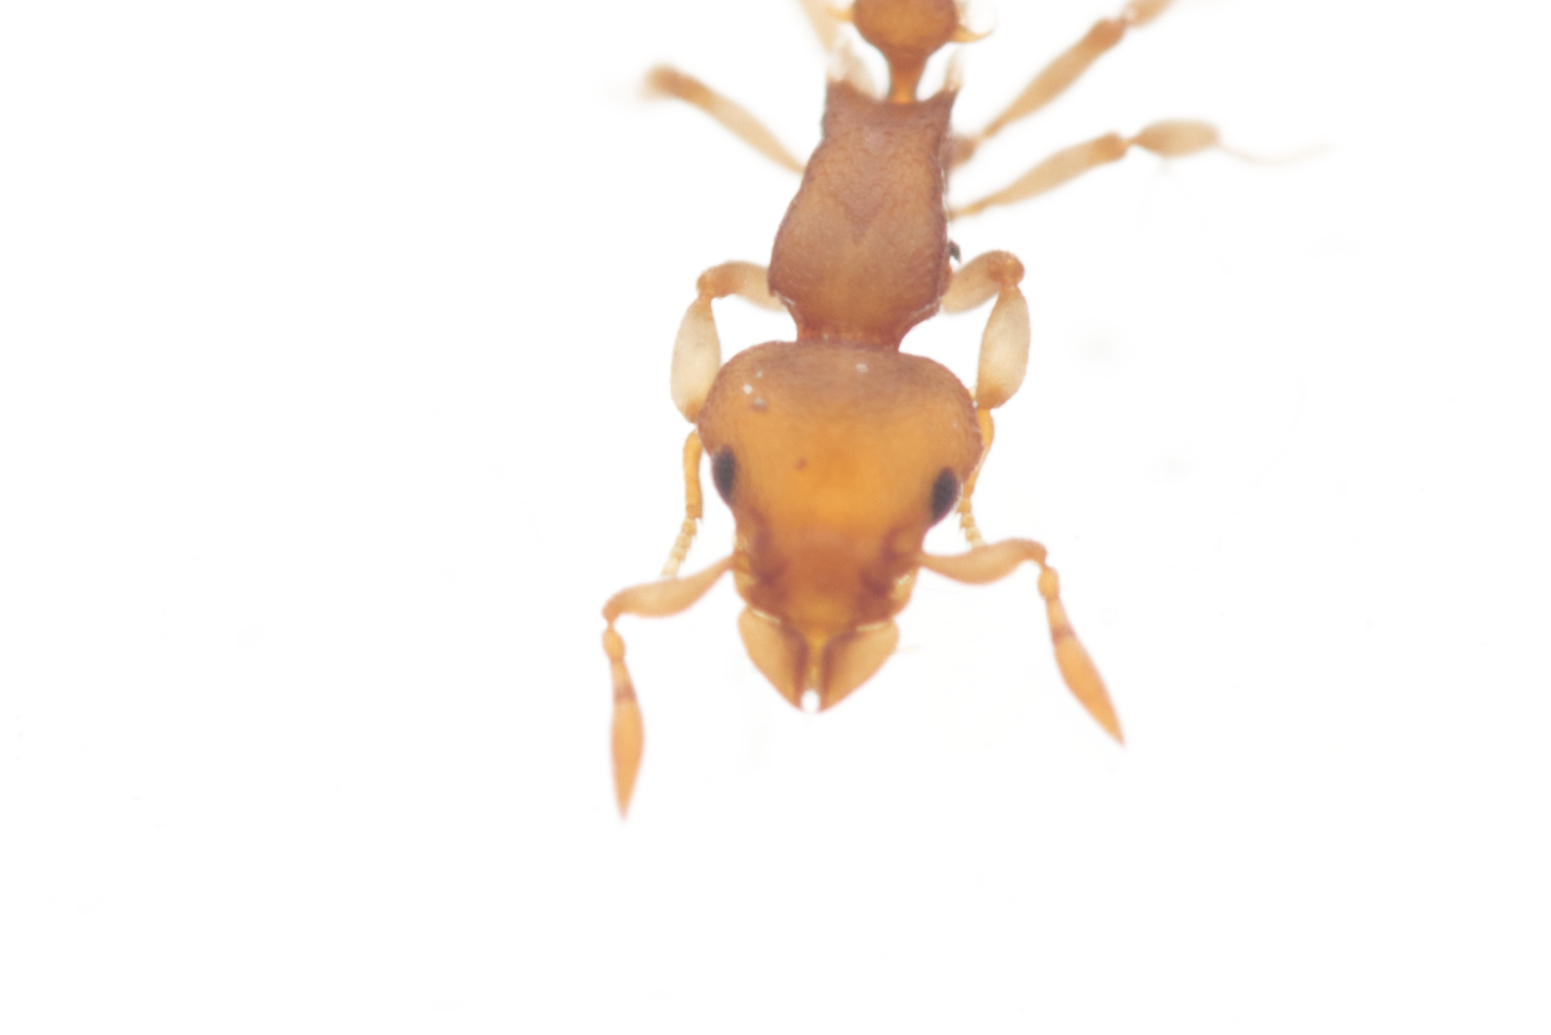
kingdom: Animalia
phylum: Arthropoda
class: Insecta
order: Hymenoptera
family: Formicidae
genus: Colobostruma
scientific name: Colobostruma
